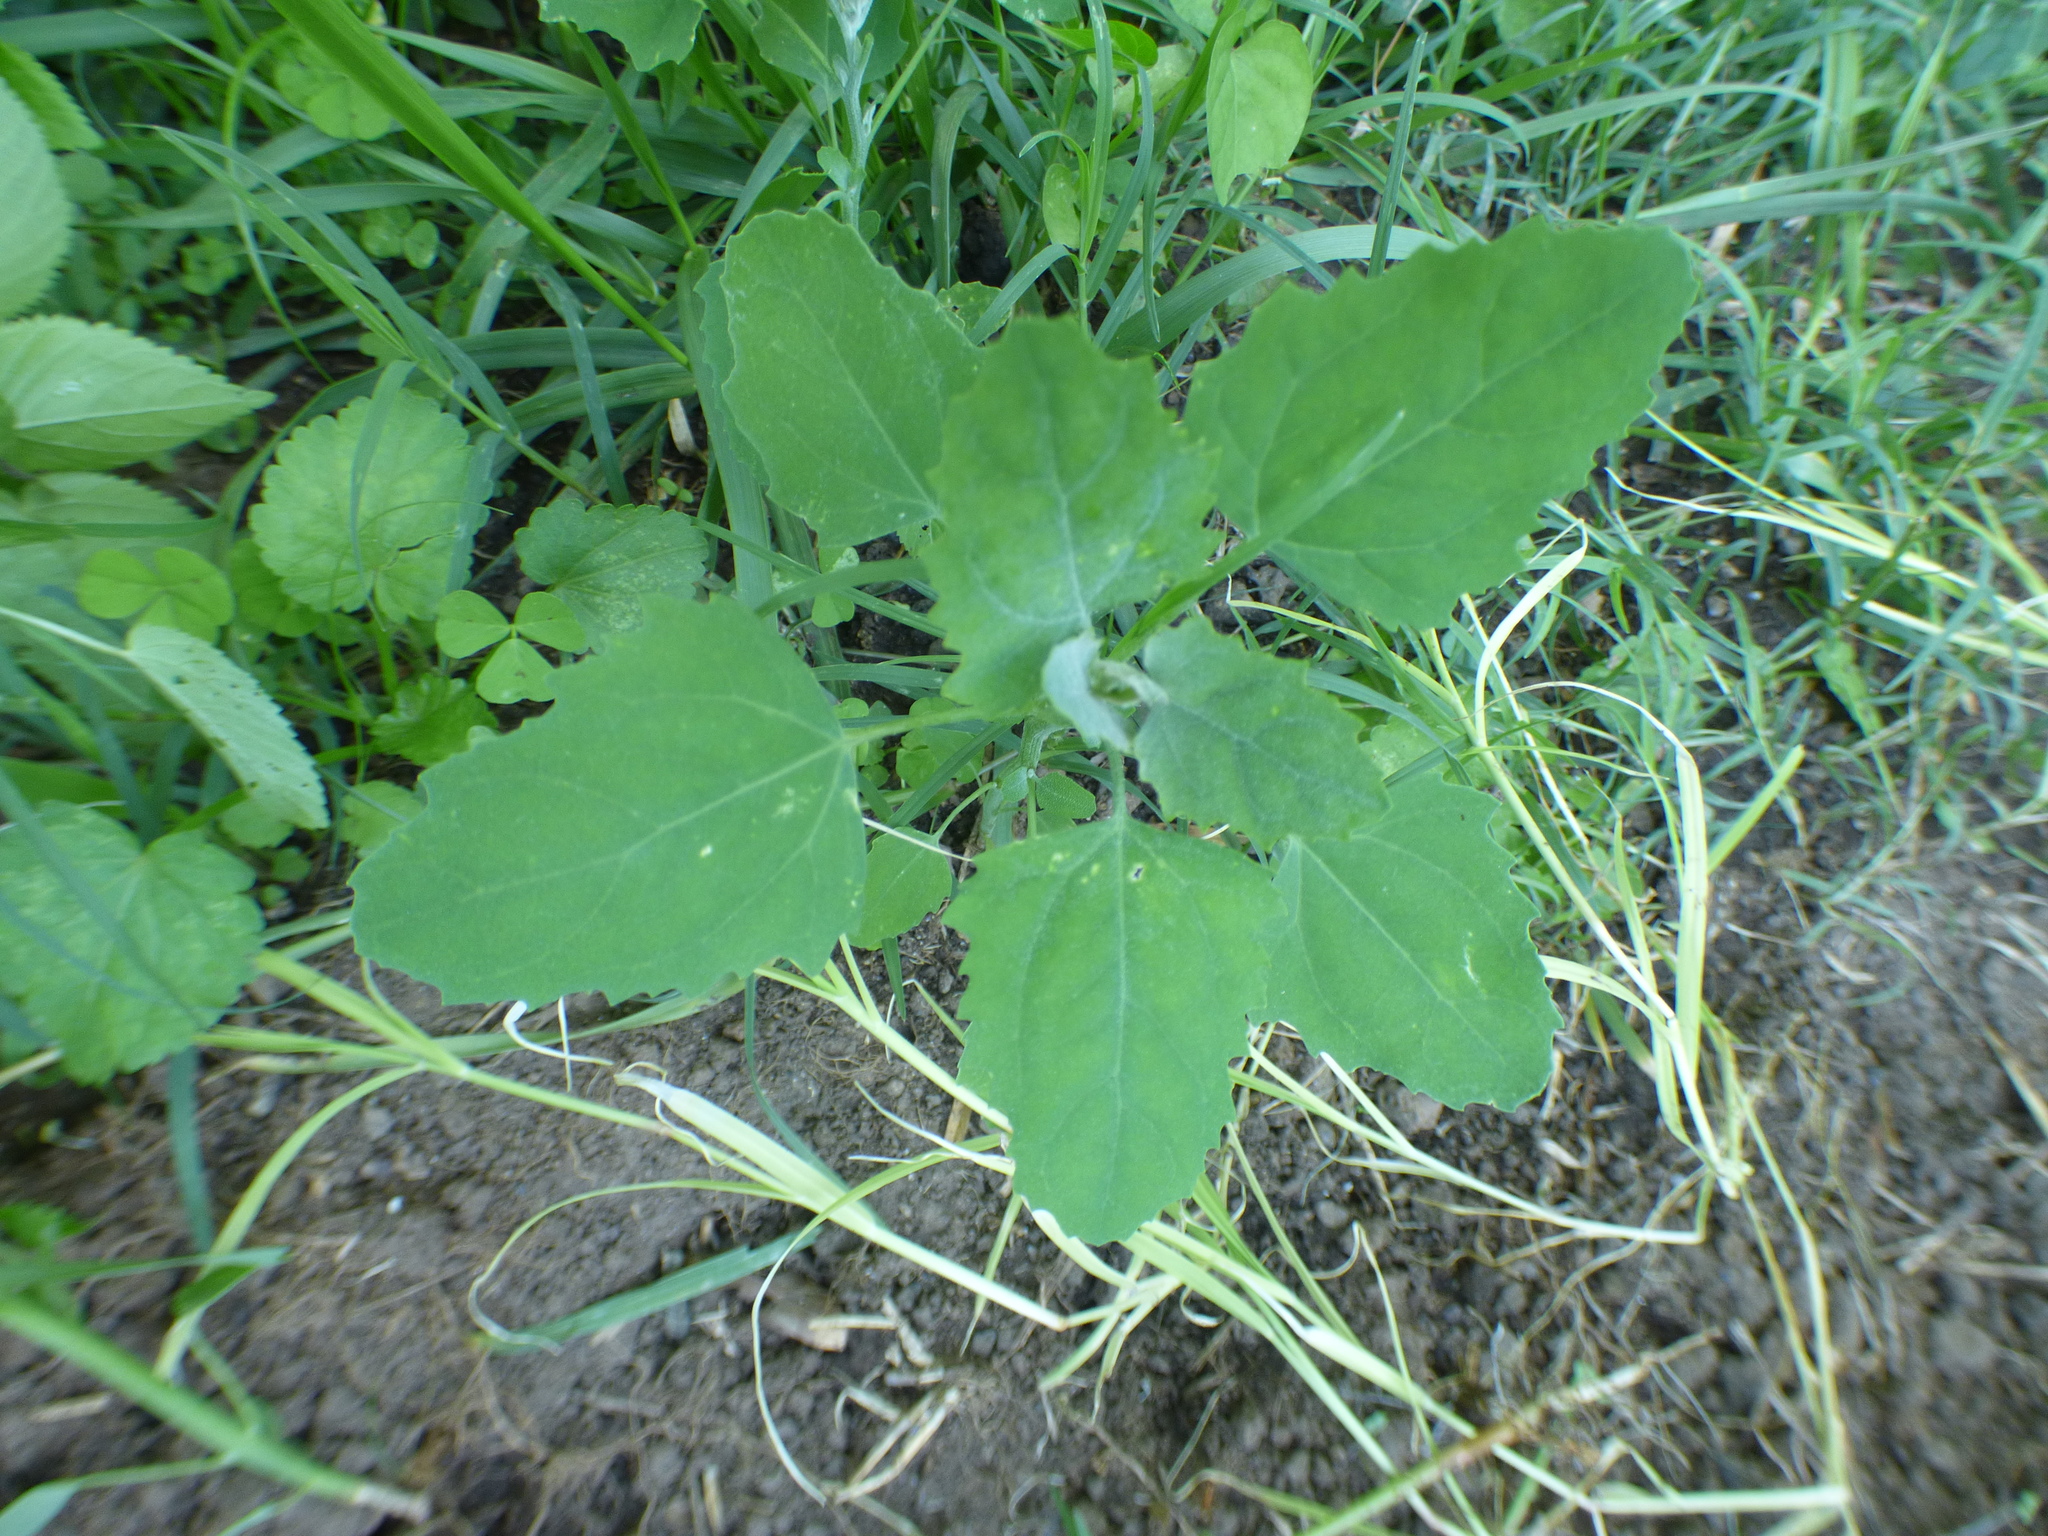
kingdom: Plantae
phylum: Tracheophyta
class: Magnoliopsida
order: Caryophyllales
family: Amaranthaceae
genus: Chenopodium
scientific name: Chenopodium album
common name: Fat-hen
